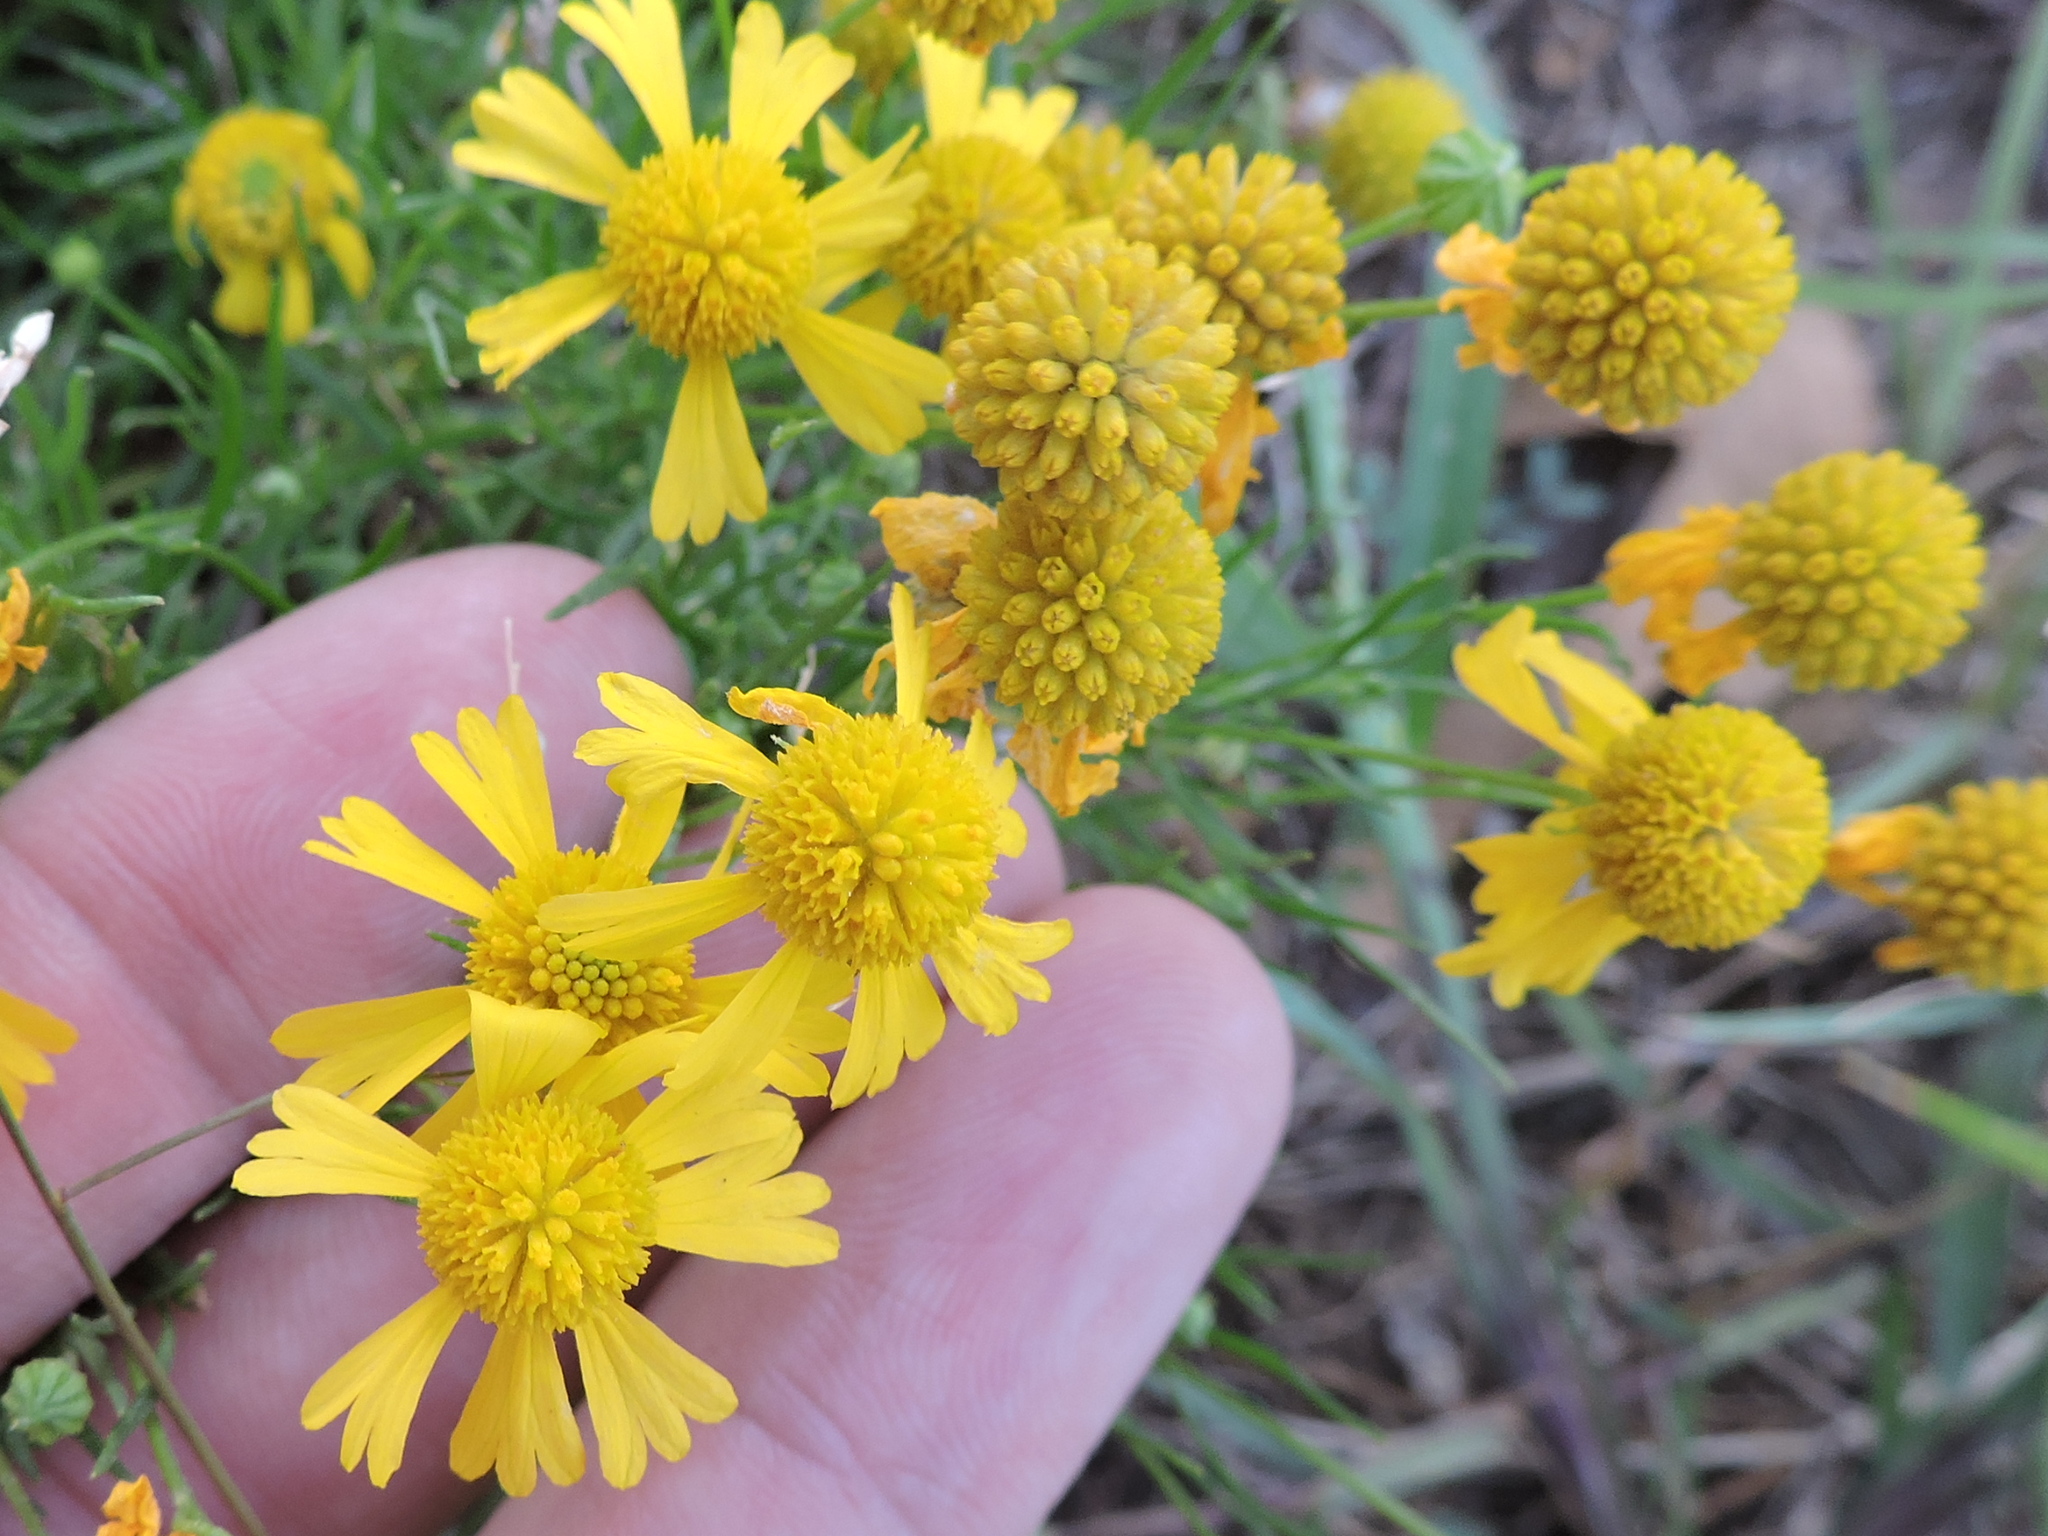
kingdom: Plantae
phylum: Tracheophyta
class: Magnoliopsida
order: Asterales
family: Asteraceae
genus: Helenium
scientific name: Helenium amarum
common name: Bitter sneezeweed
